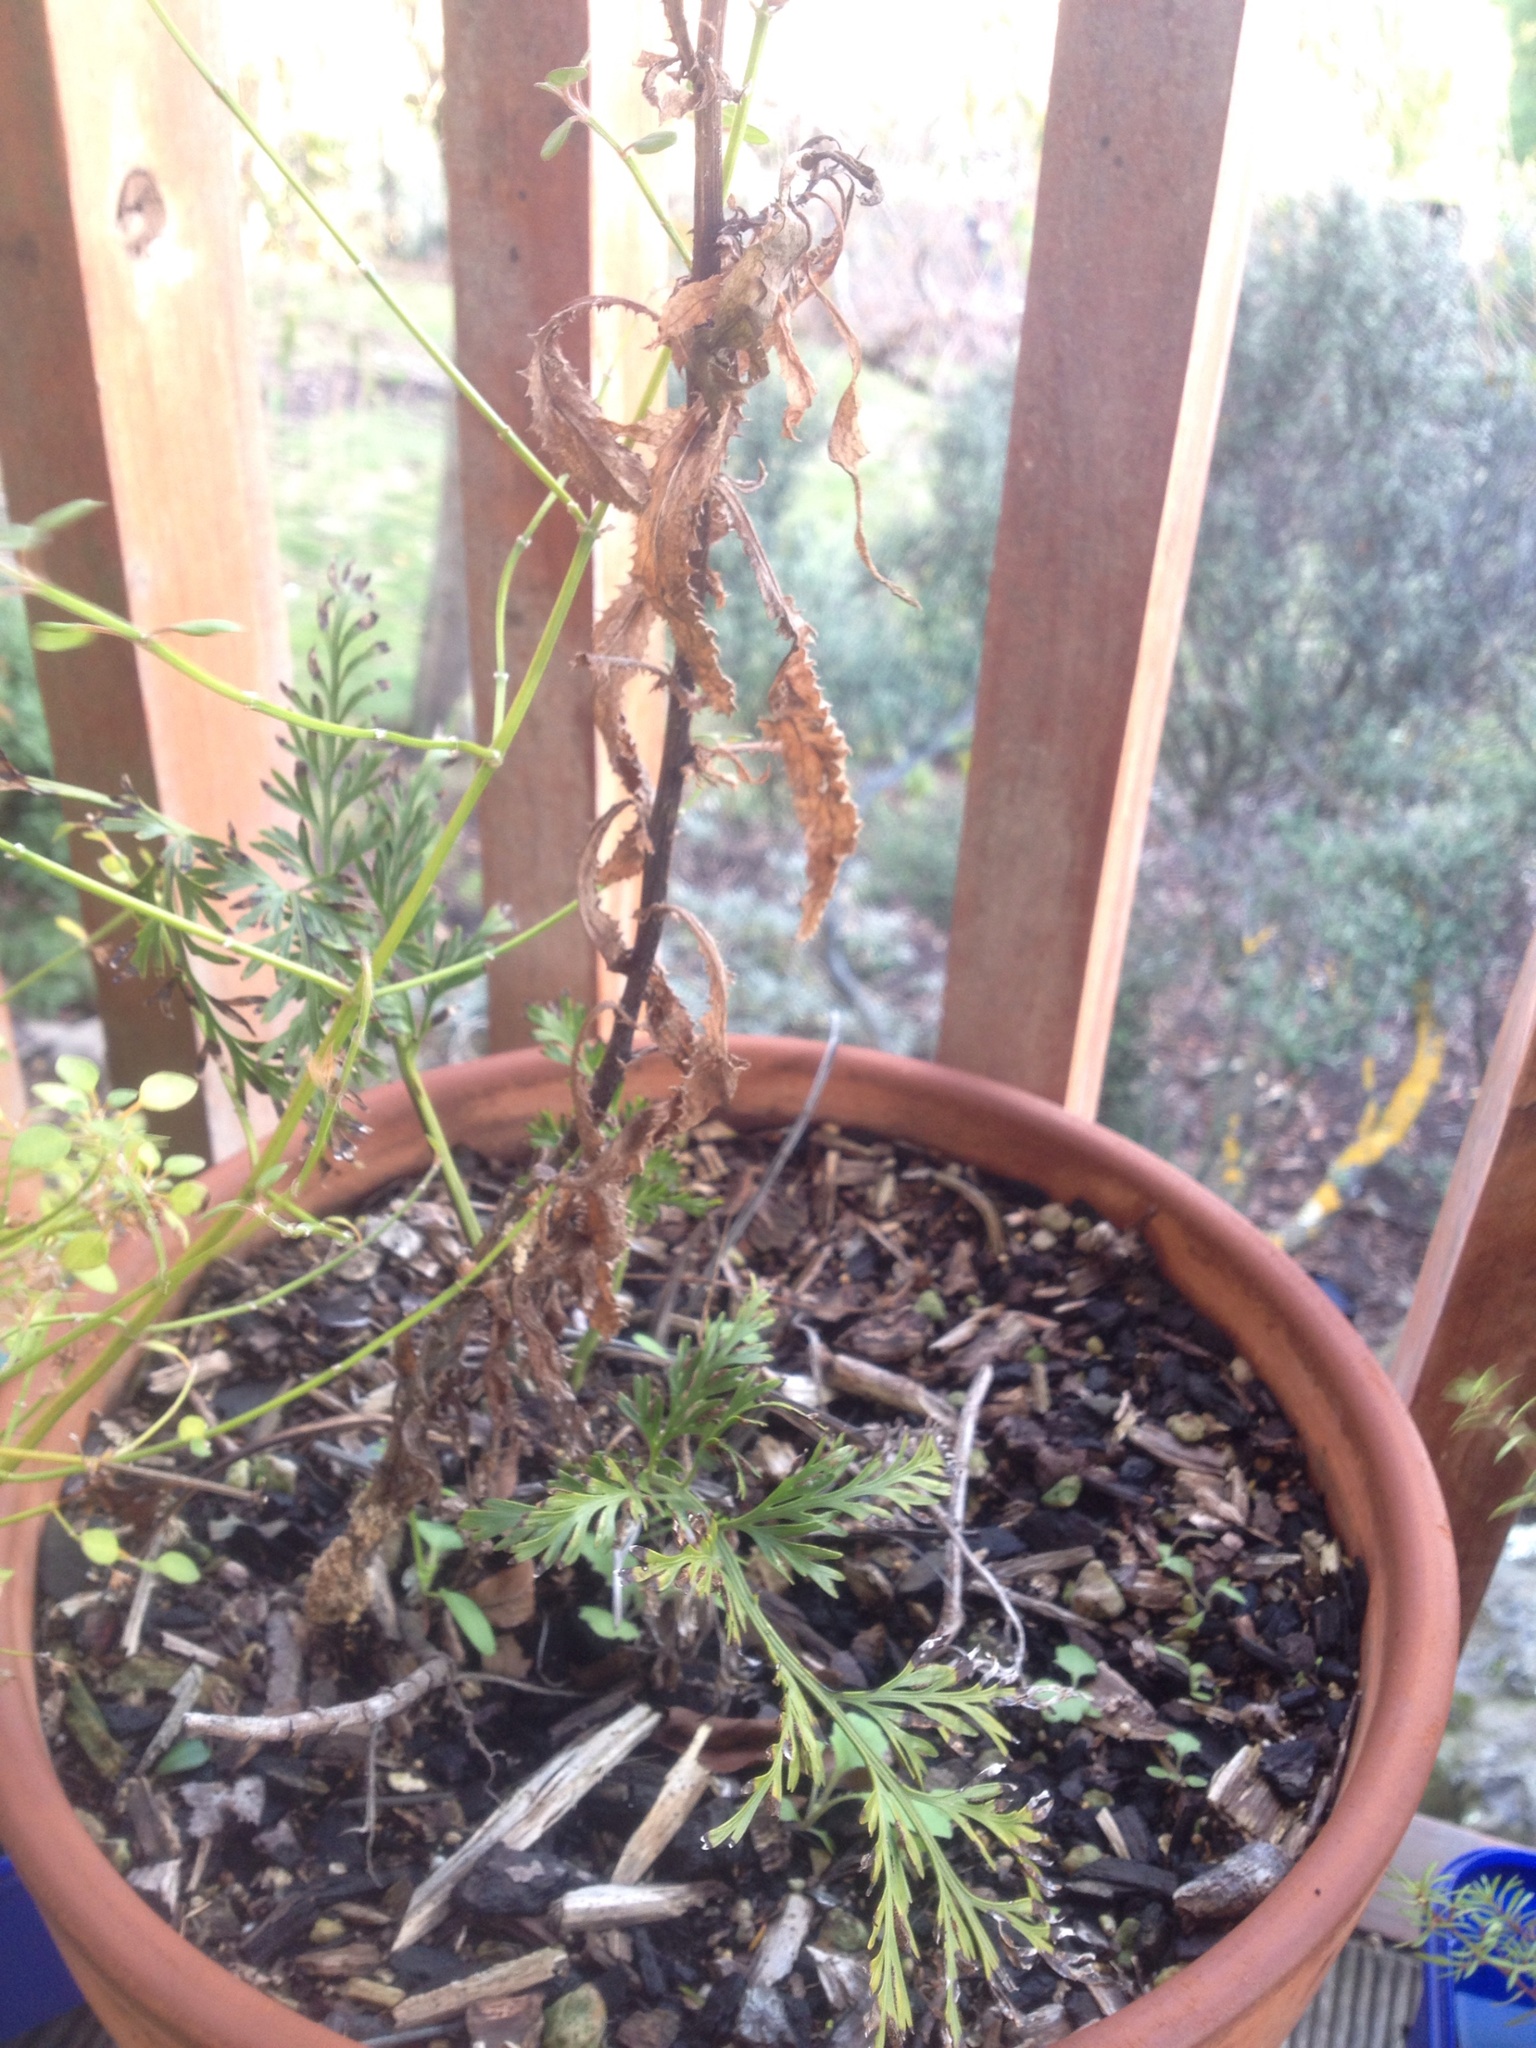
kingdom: Plantae
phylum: Tracheophyta
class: Magnoliopsida
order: Asterales
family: Asteraceae
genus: Senecio
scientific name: Senecio minimus
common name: Toothed fireweed
